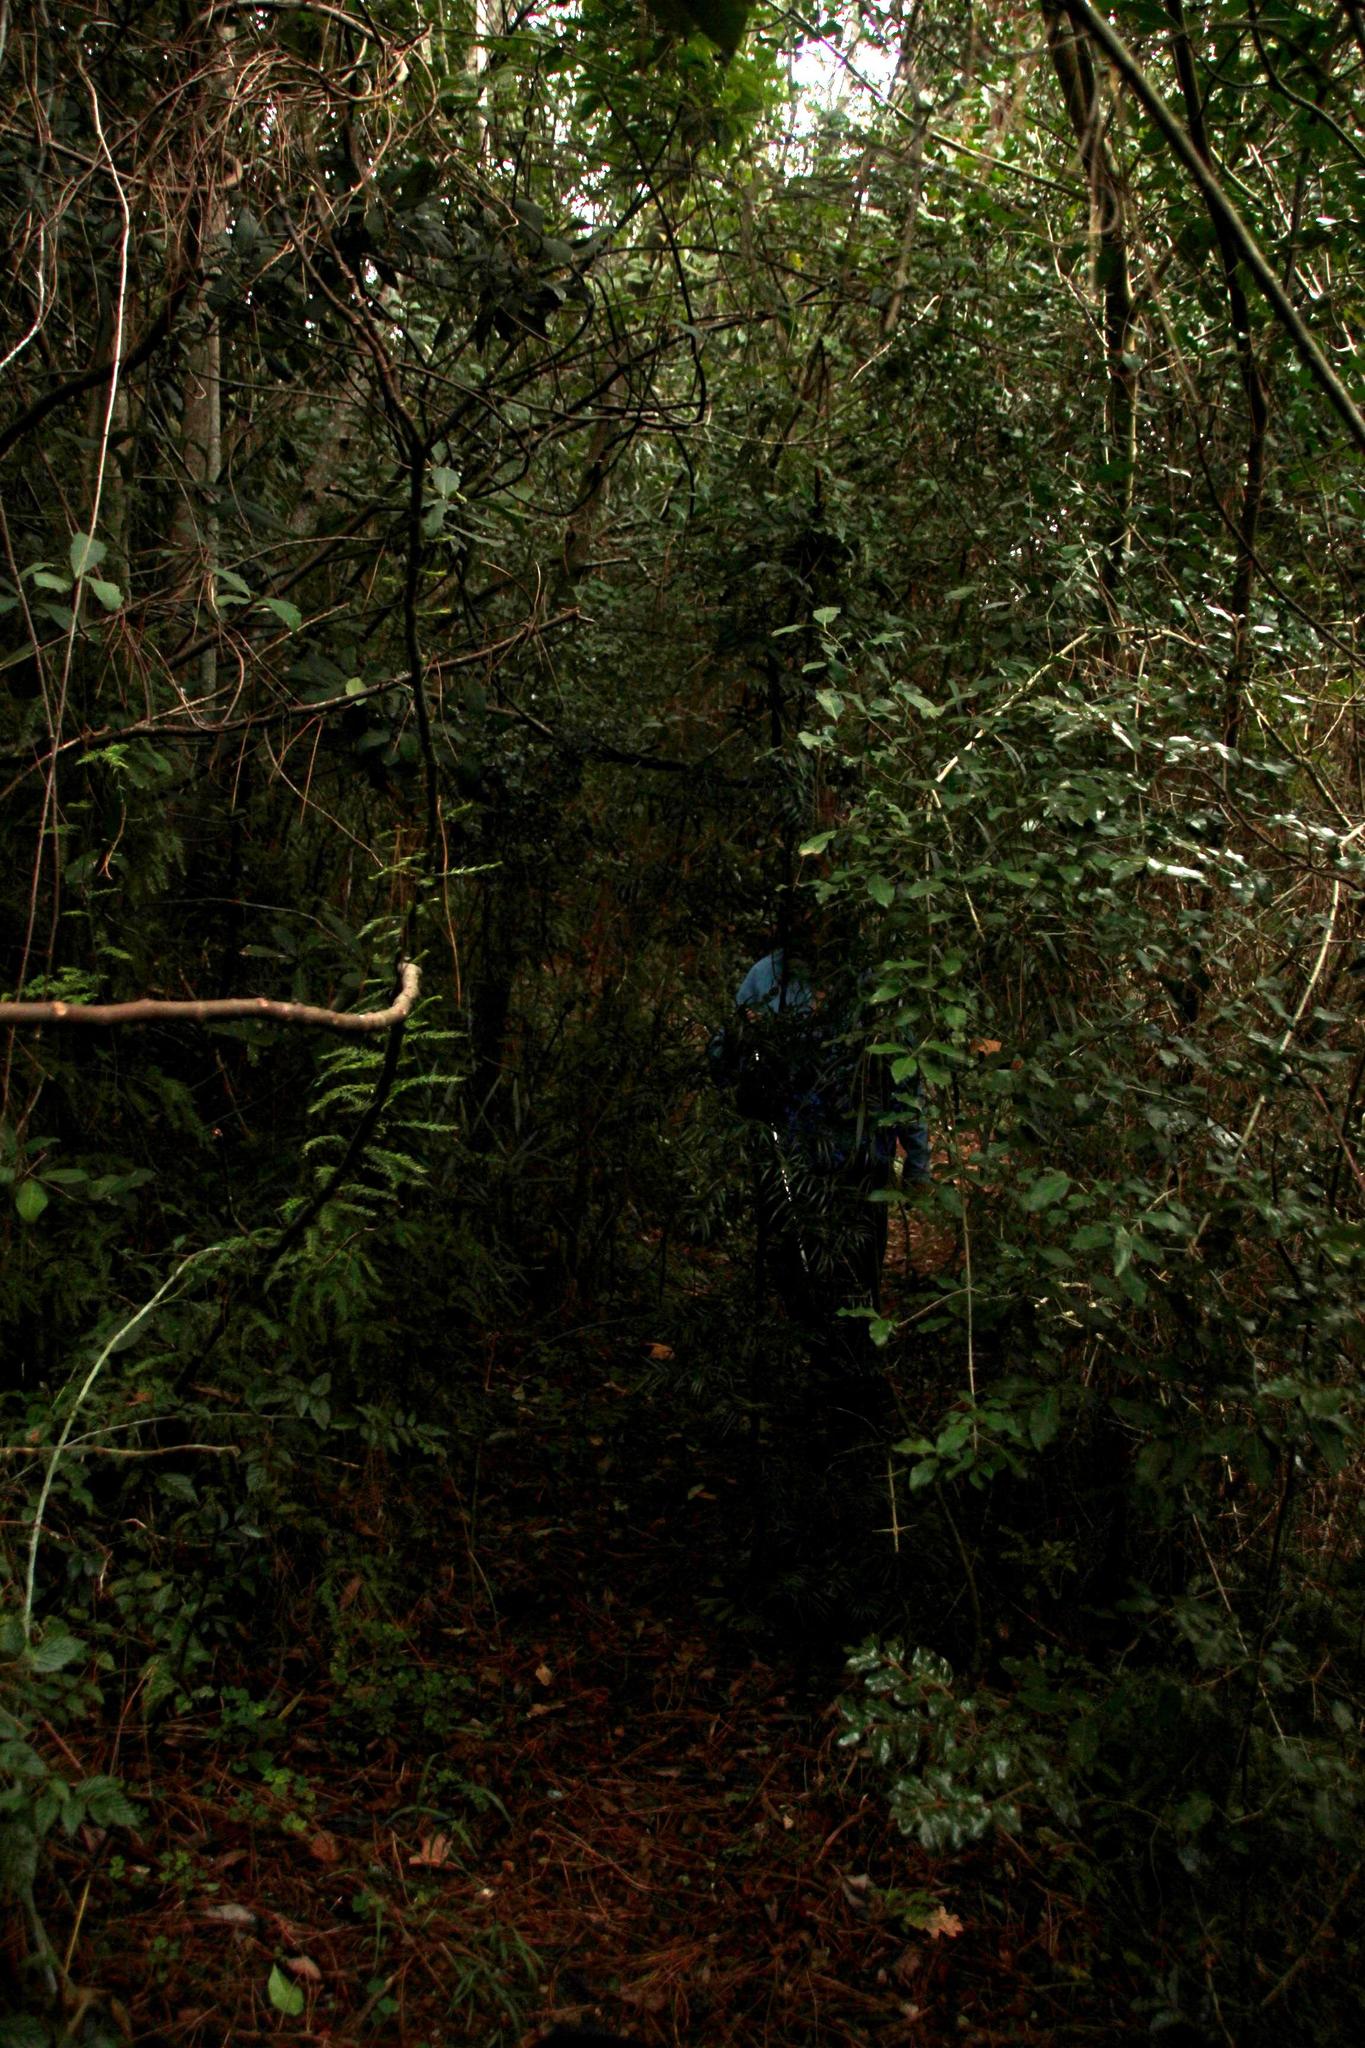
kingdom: Plantae
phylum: Tracheophyta
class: Pinopsida
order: Pinales
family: Podocarpaceae
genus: Afrocarpus
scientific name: Afrocarpus falcatus
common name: Bastard yellowwood
